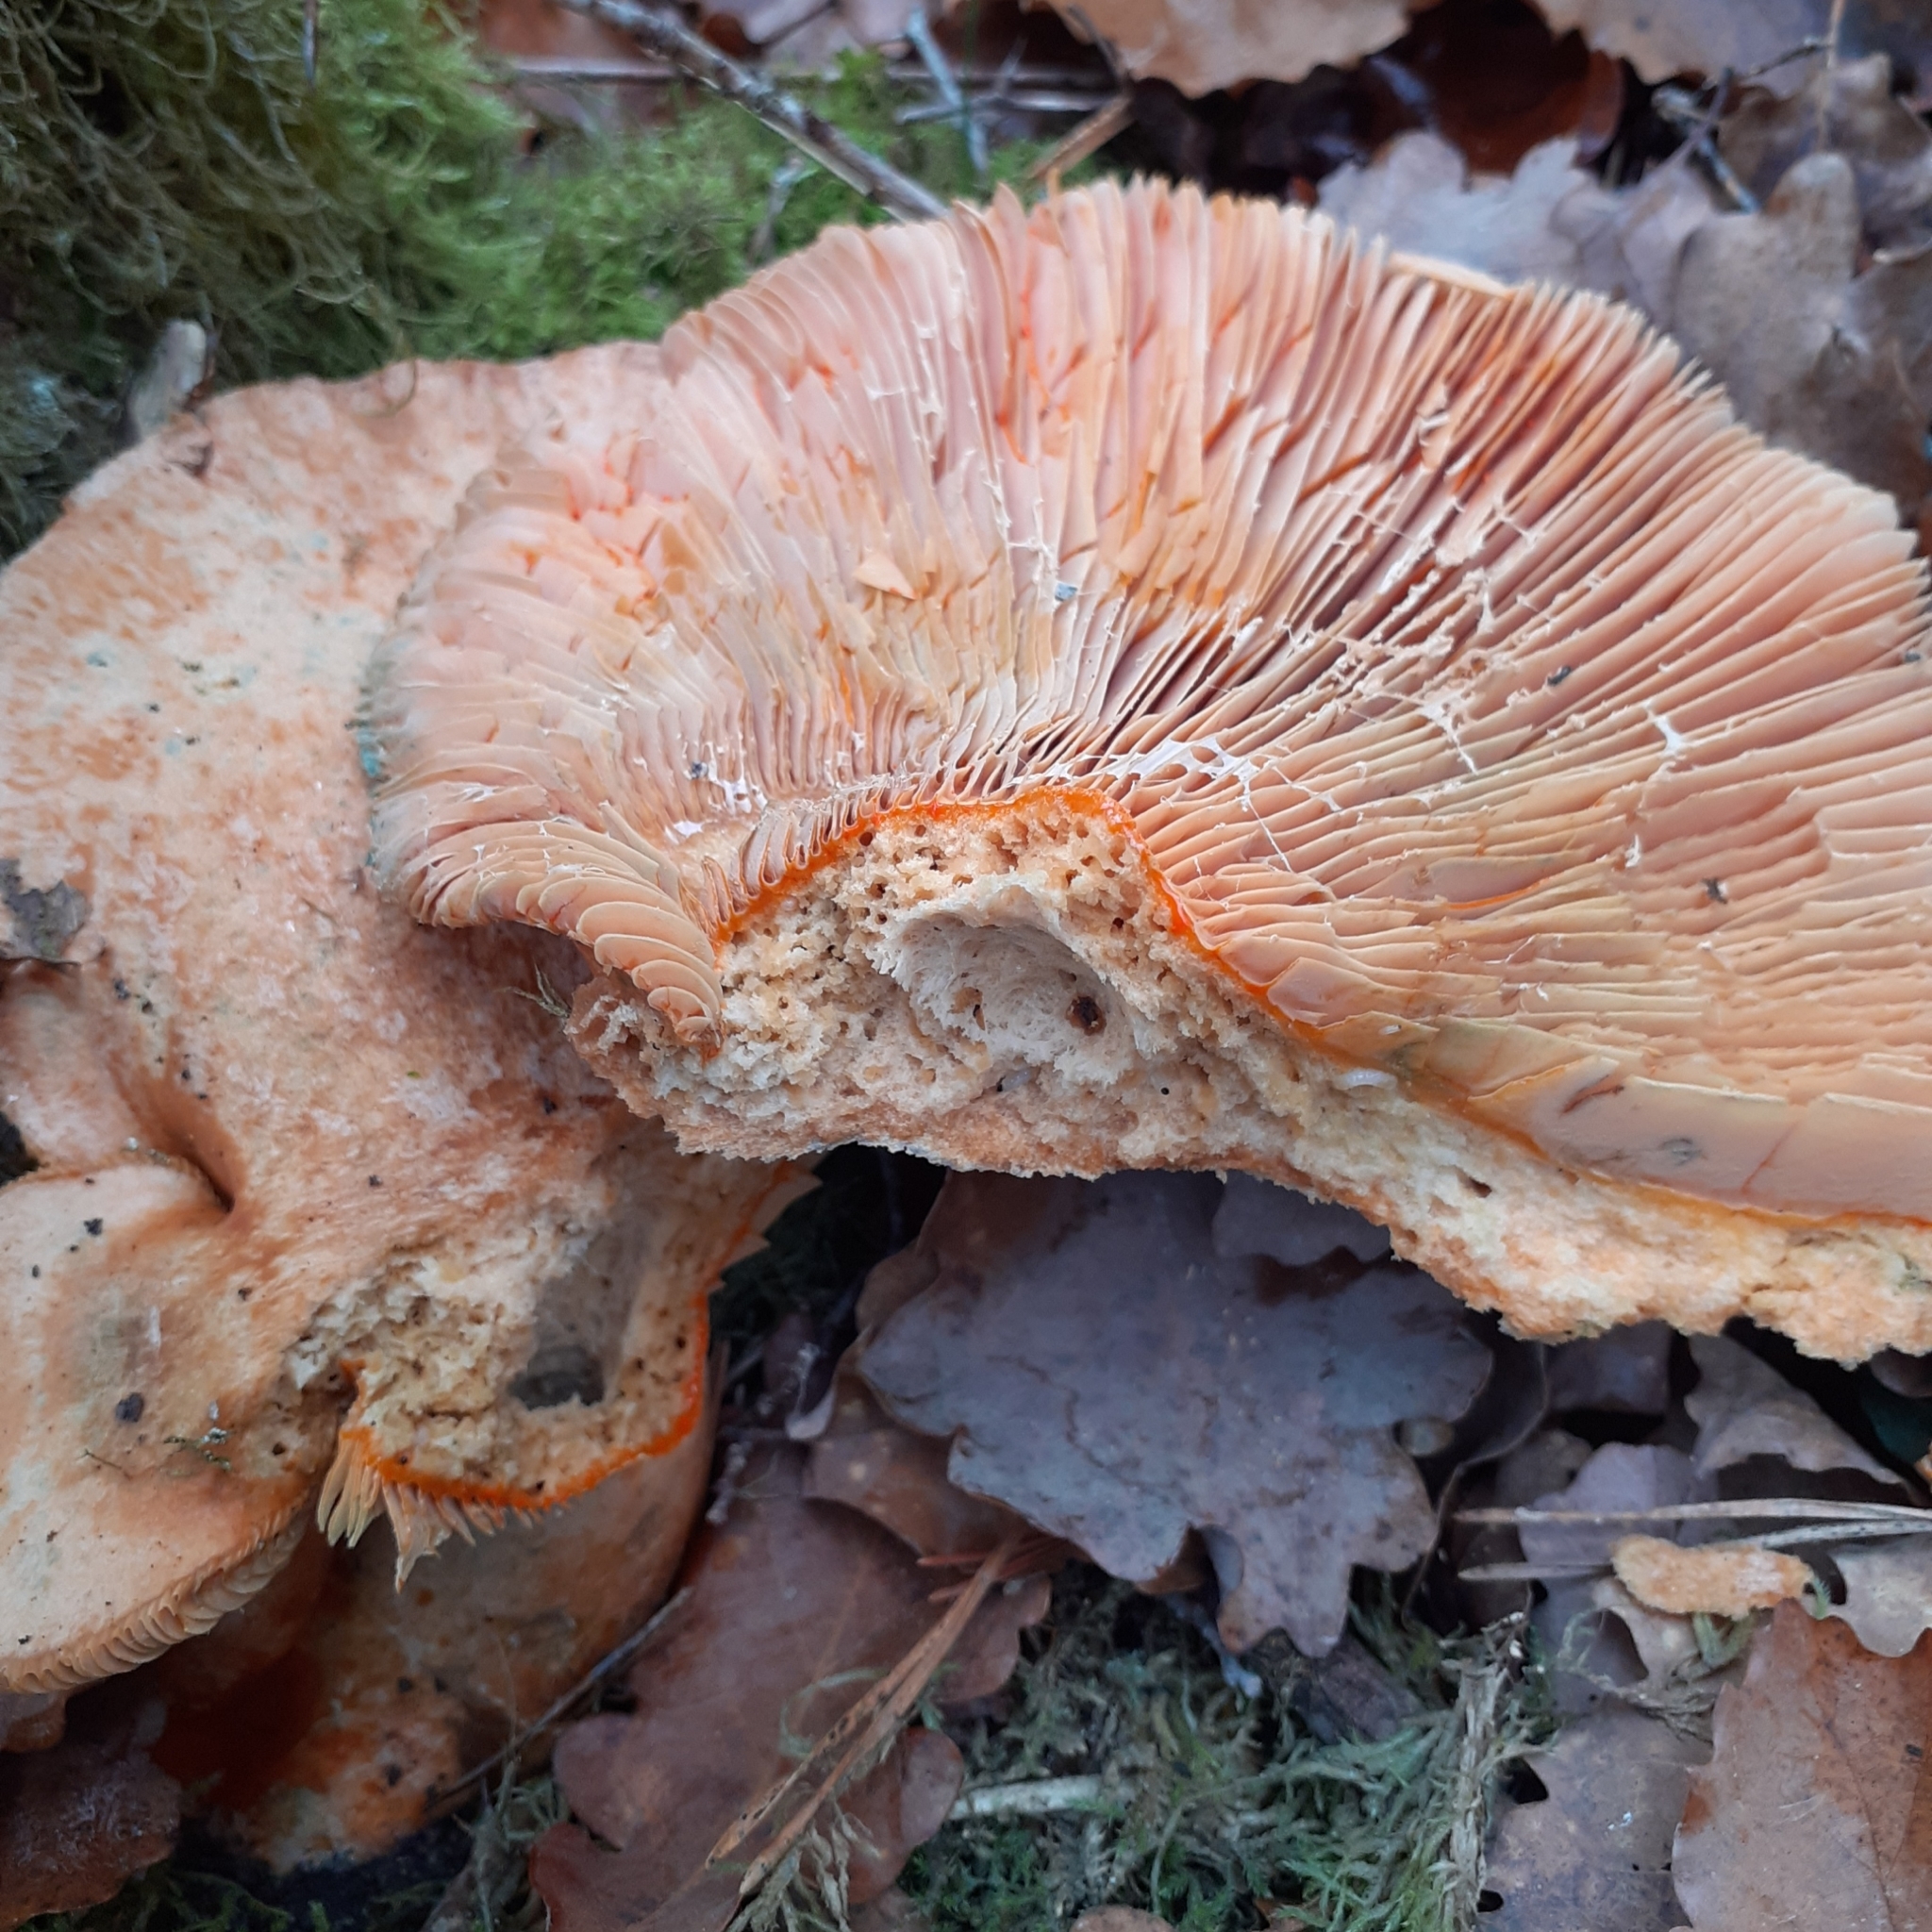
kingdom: Fungi
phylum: Basidiomycota
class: Agaricomycetes
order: Russulales
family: Russulaceae
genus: Lactarius
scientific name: Lactarius deliciosus
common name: Saffron milk-cap
